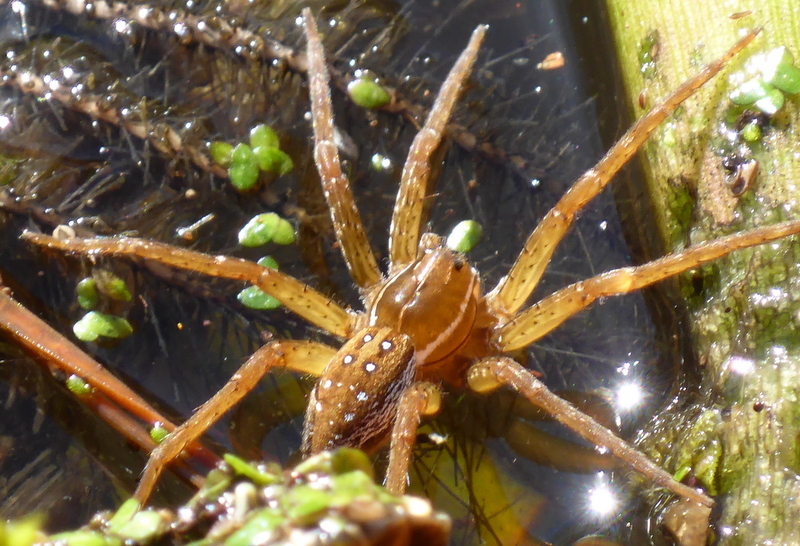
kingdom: Animalia
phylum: Arthropoda
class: Arachnida
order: Araneae
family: Pisauridae
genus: Dolomedes
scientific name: Dolomedes triton
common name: Six-spotted fishing spider
